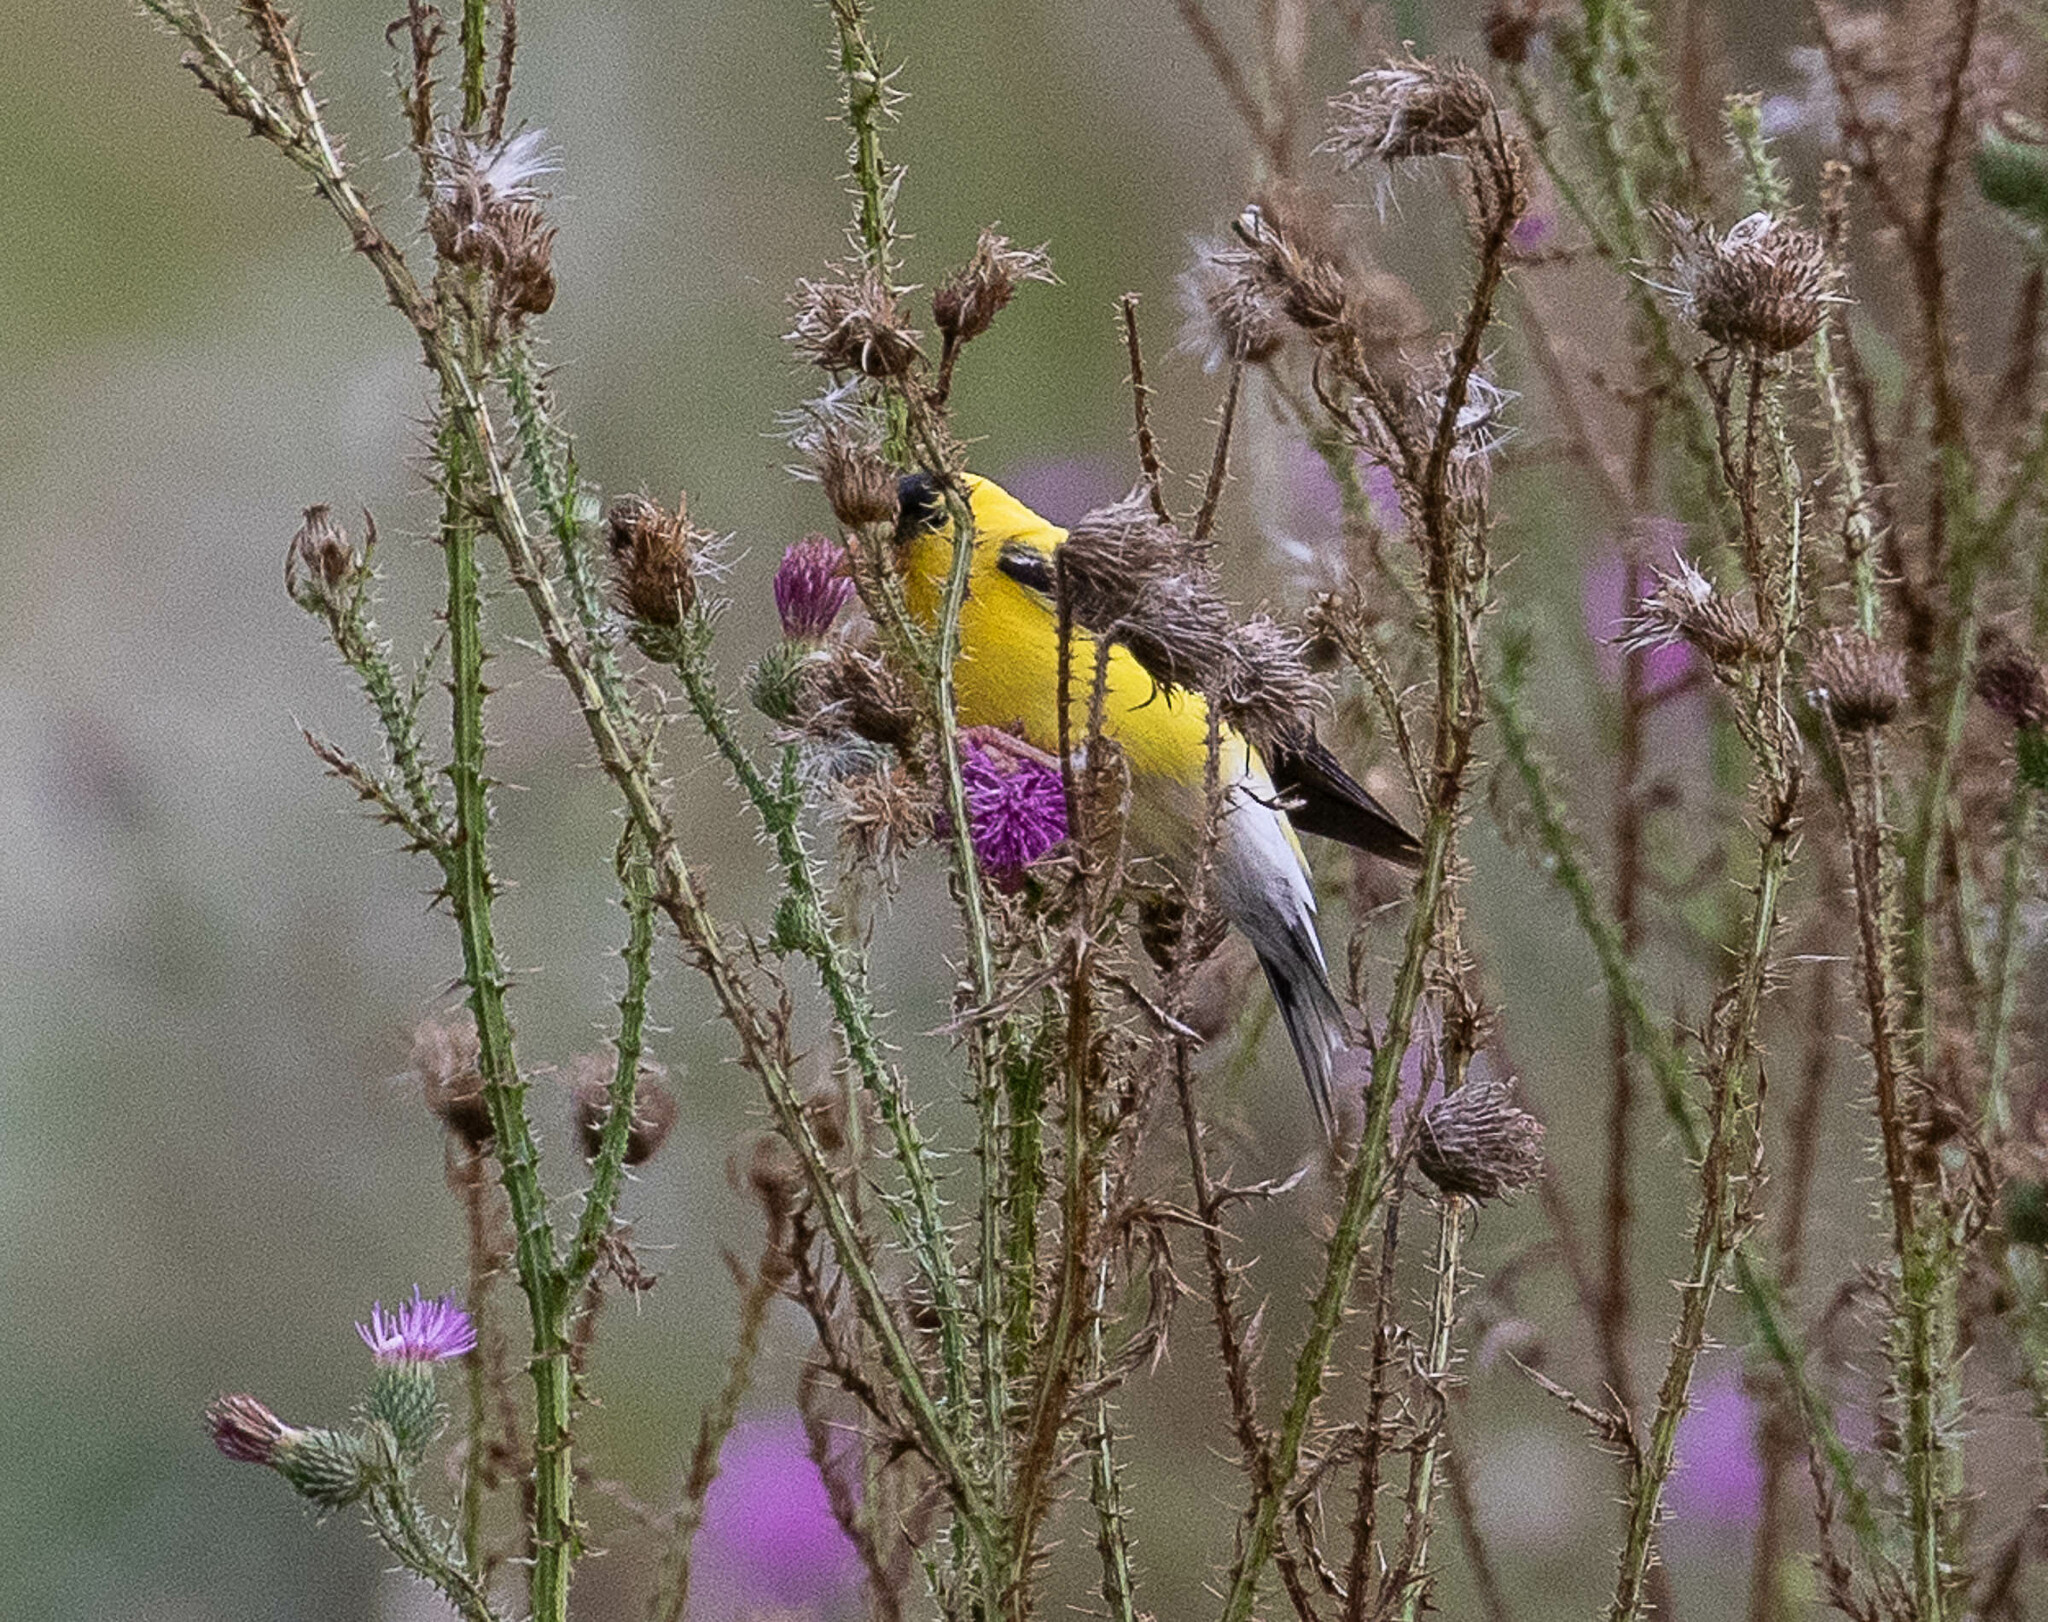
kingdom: Animalia
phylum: Chordata
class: Aves
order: Passeriformes
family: Fringillidae
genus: Spinus
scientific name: Spinus tristis
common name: American goldfinch
